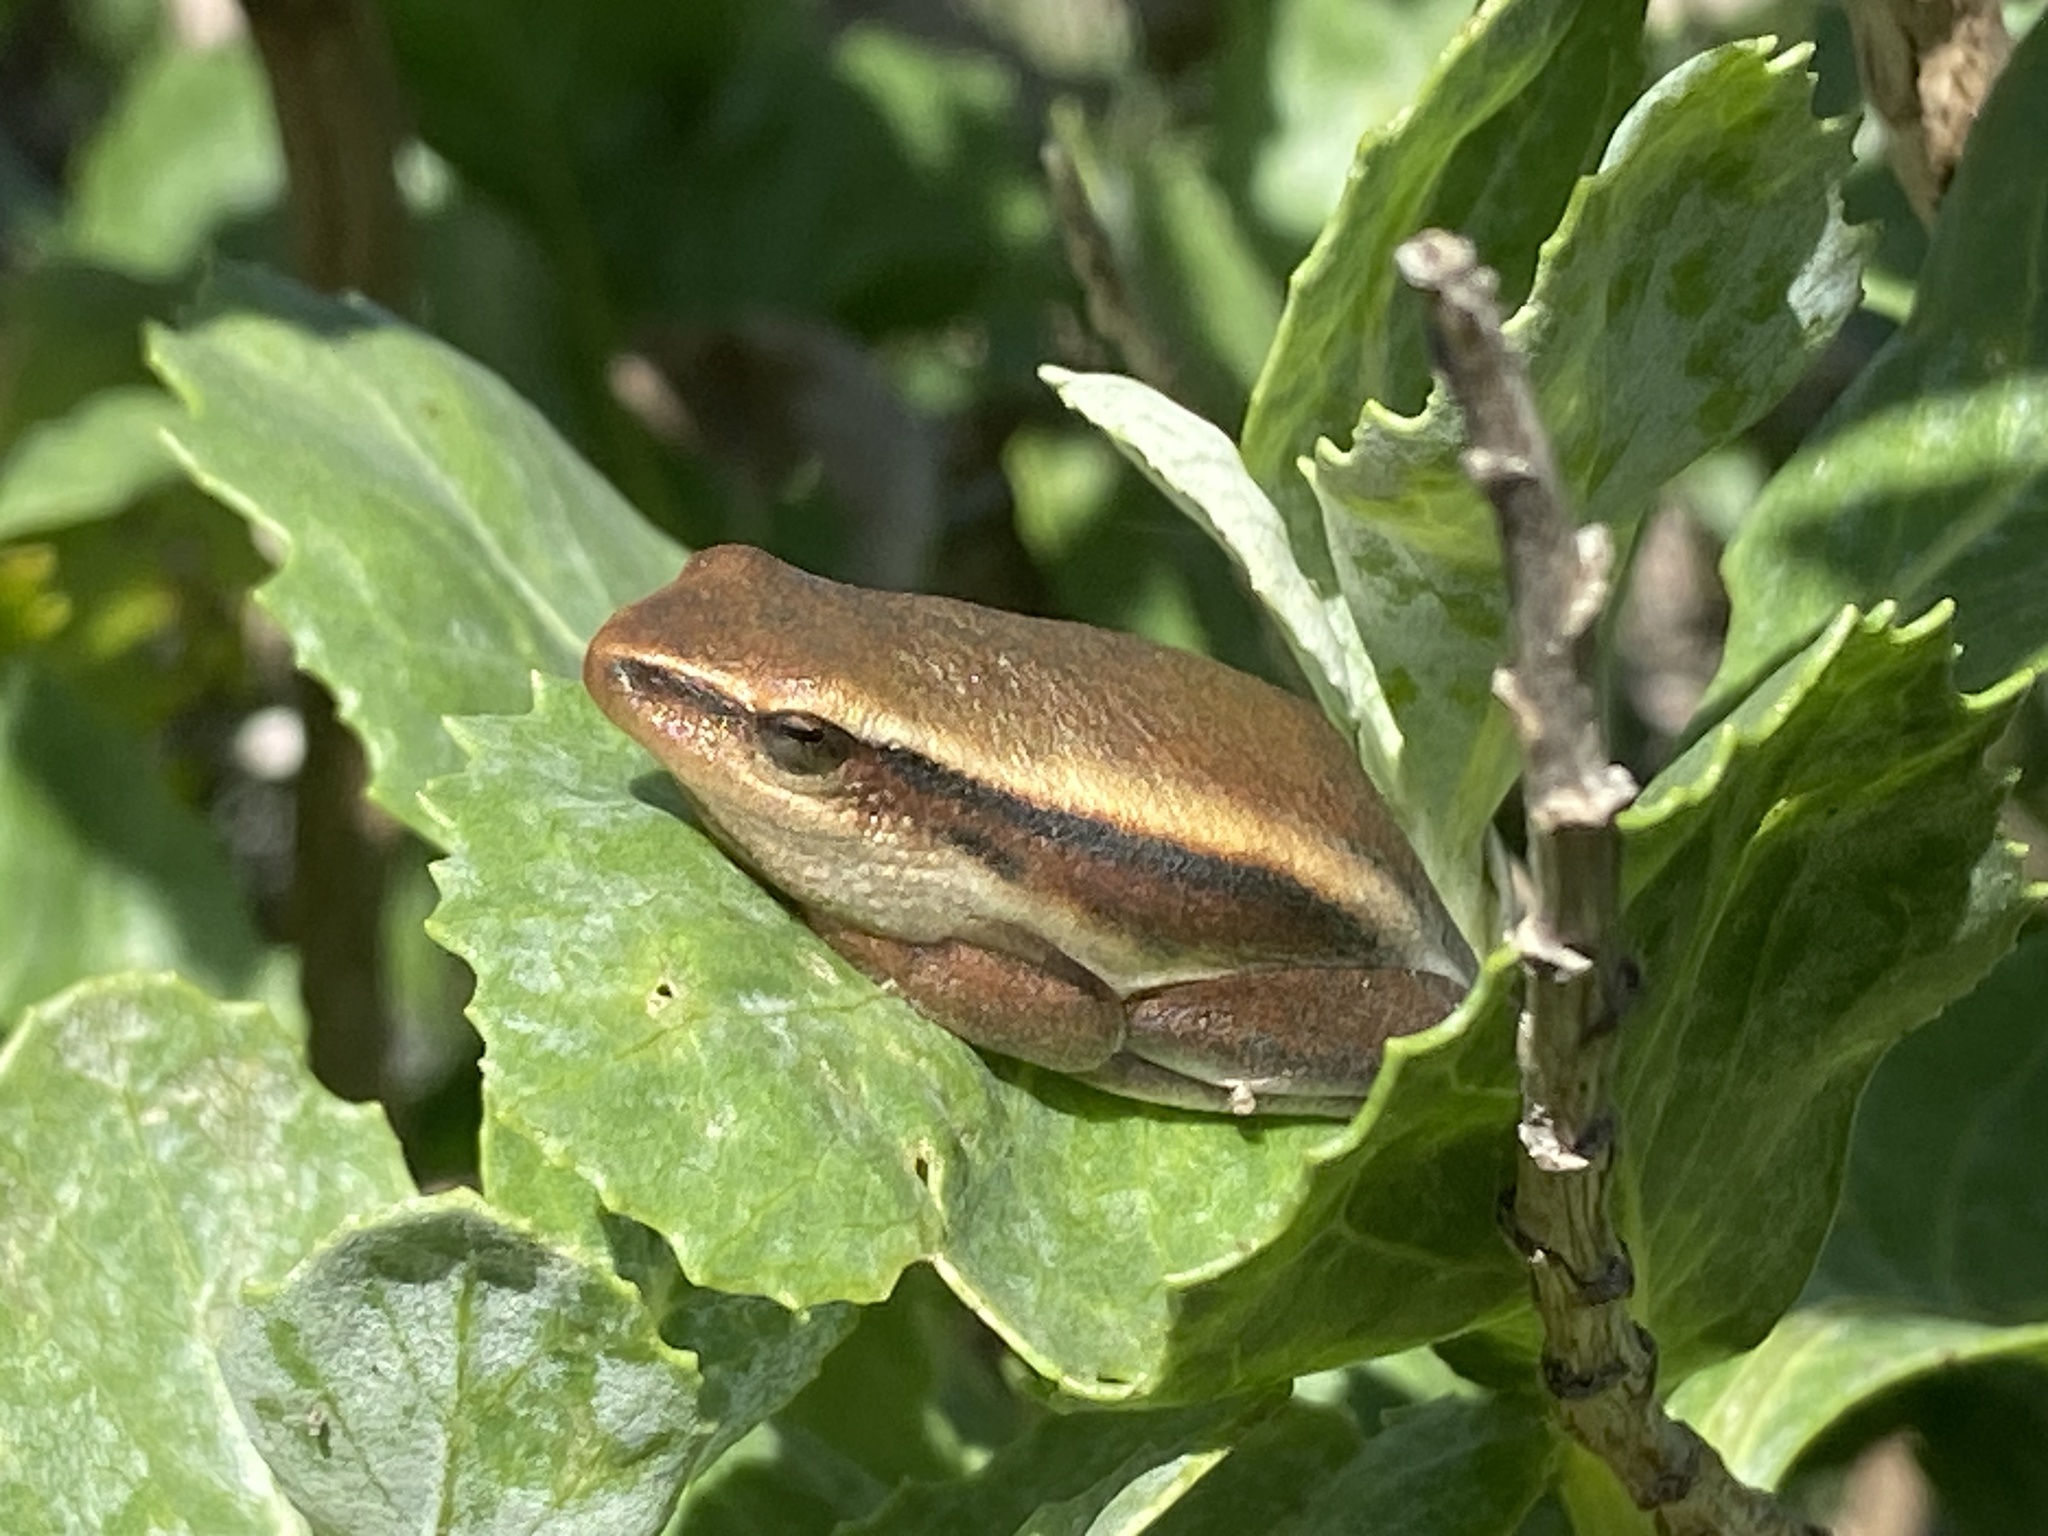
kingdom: Animalia
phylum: Chordata
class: Amphibia
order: Anura
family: Hyperoliidae
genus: Hyperolius
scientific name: Hyperolius horstockii
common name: Arum lily frog
